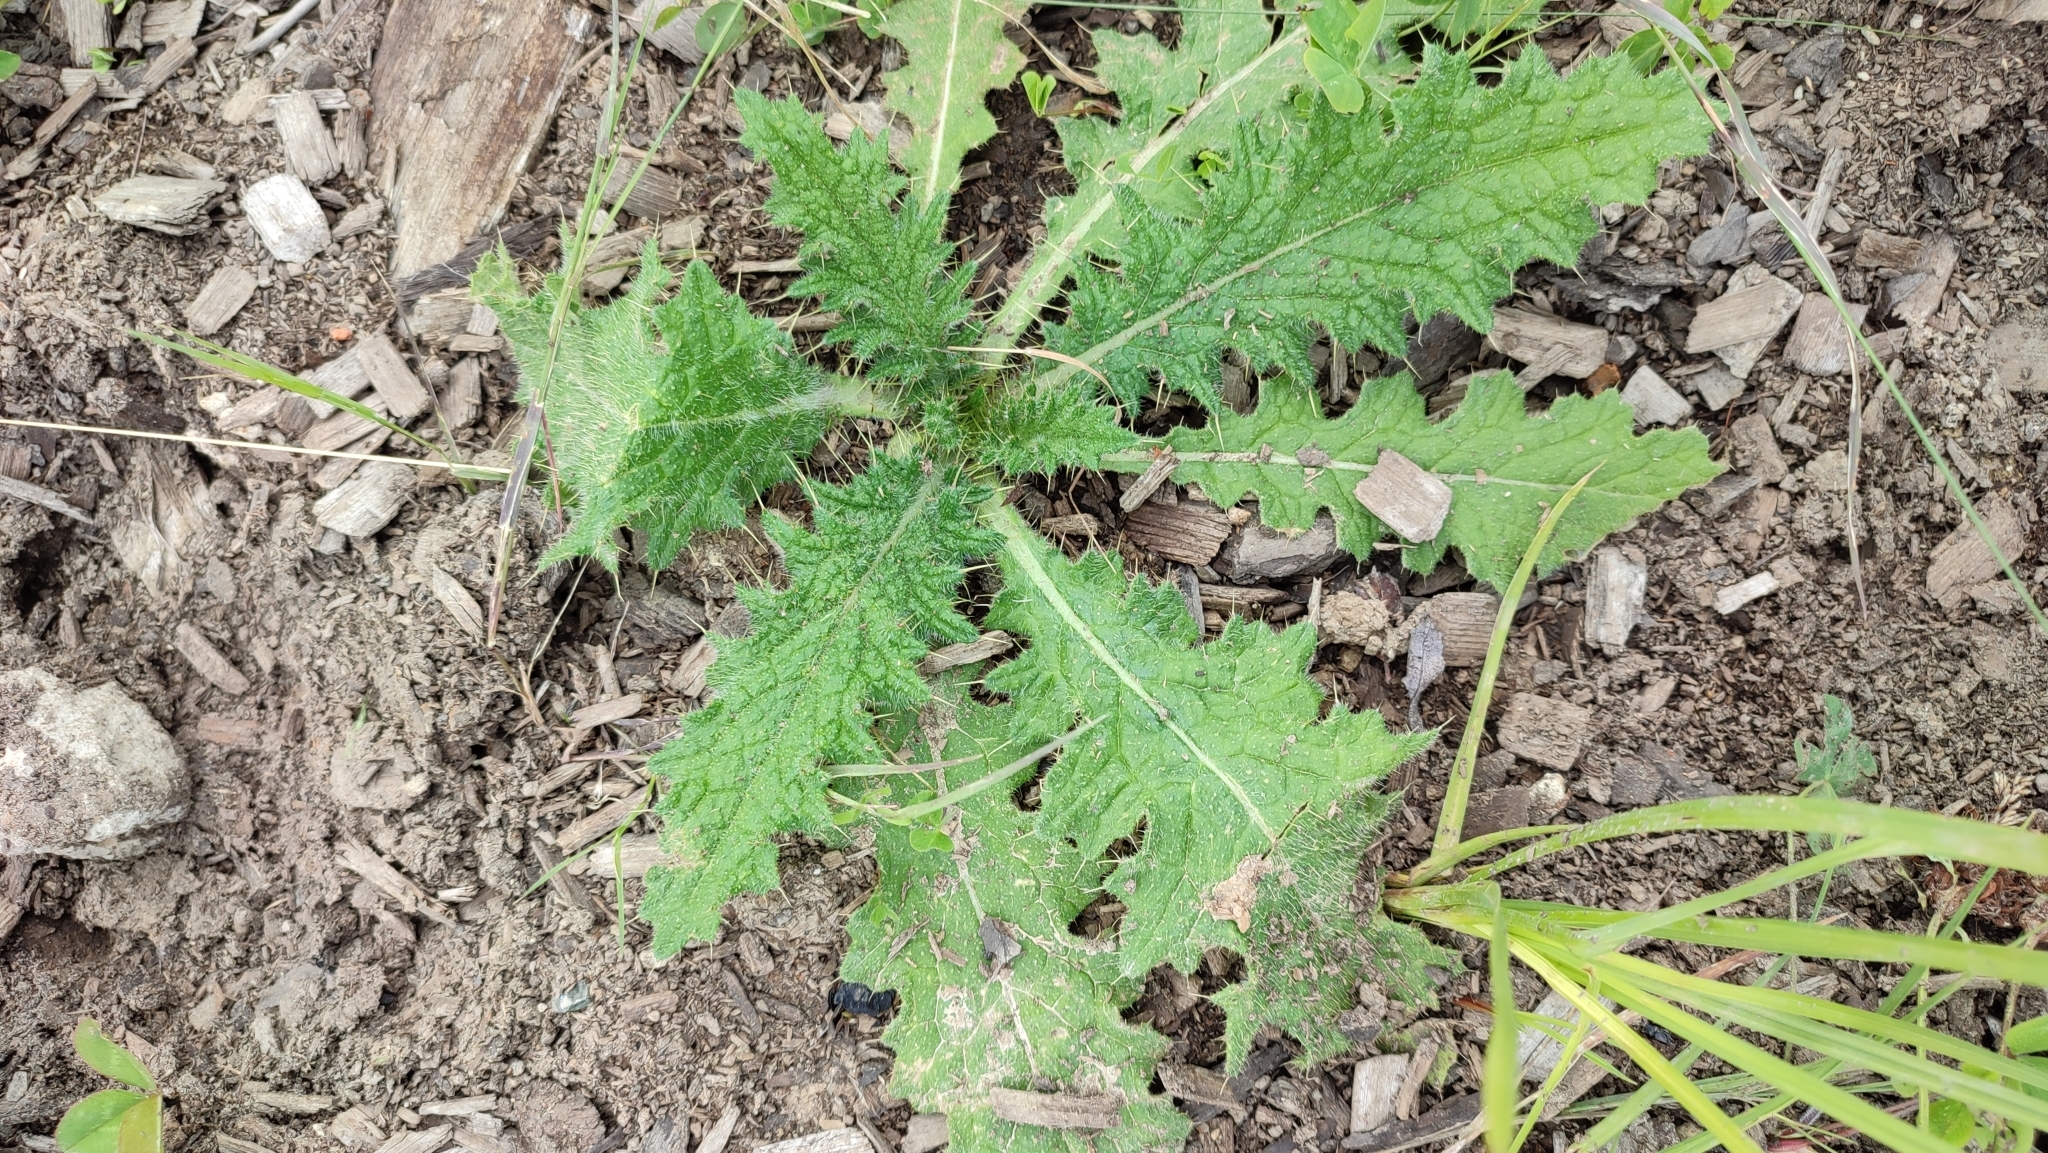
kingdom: Plantae
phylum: Tracheophyta
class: Magnoliopsida
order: Asterales
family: Asteraceae
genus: Cirsium
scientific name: Cirsium vulgare
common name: Bull thistle
